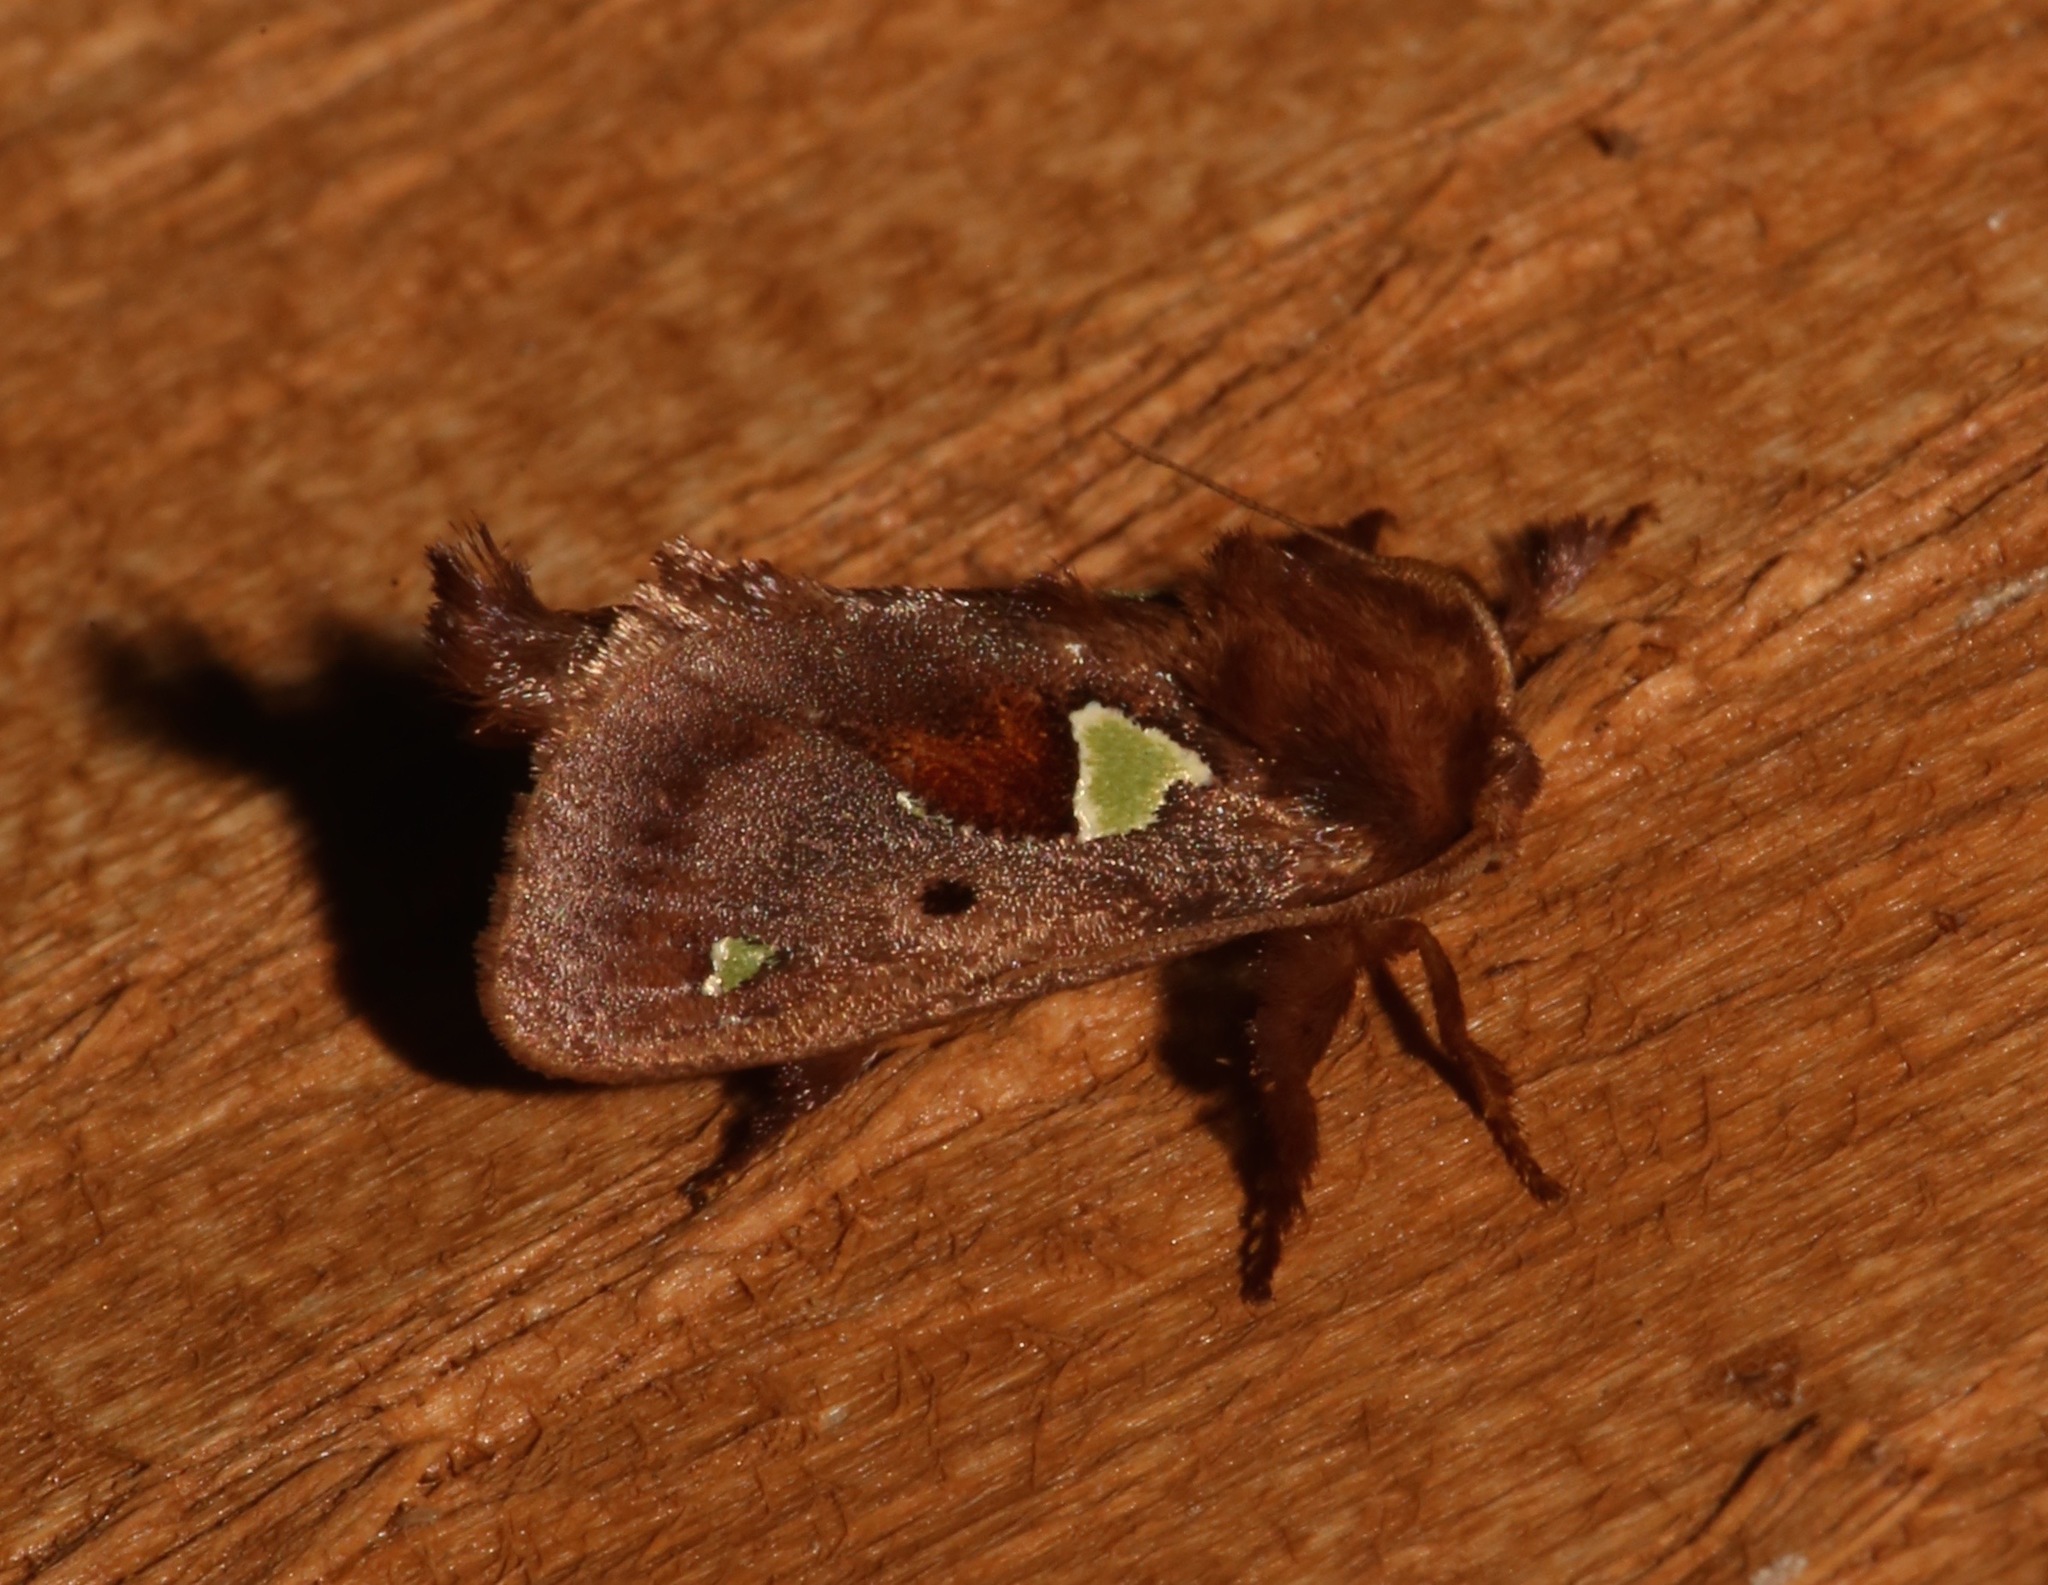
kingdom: Animalia
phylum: Arthropoda
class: Insecta
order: Lepidoptera
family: Limacodidae
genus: Euclea
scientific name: Euclea delphinii
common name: Spiny oak-slug moth
